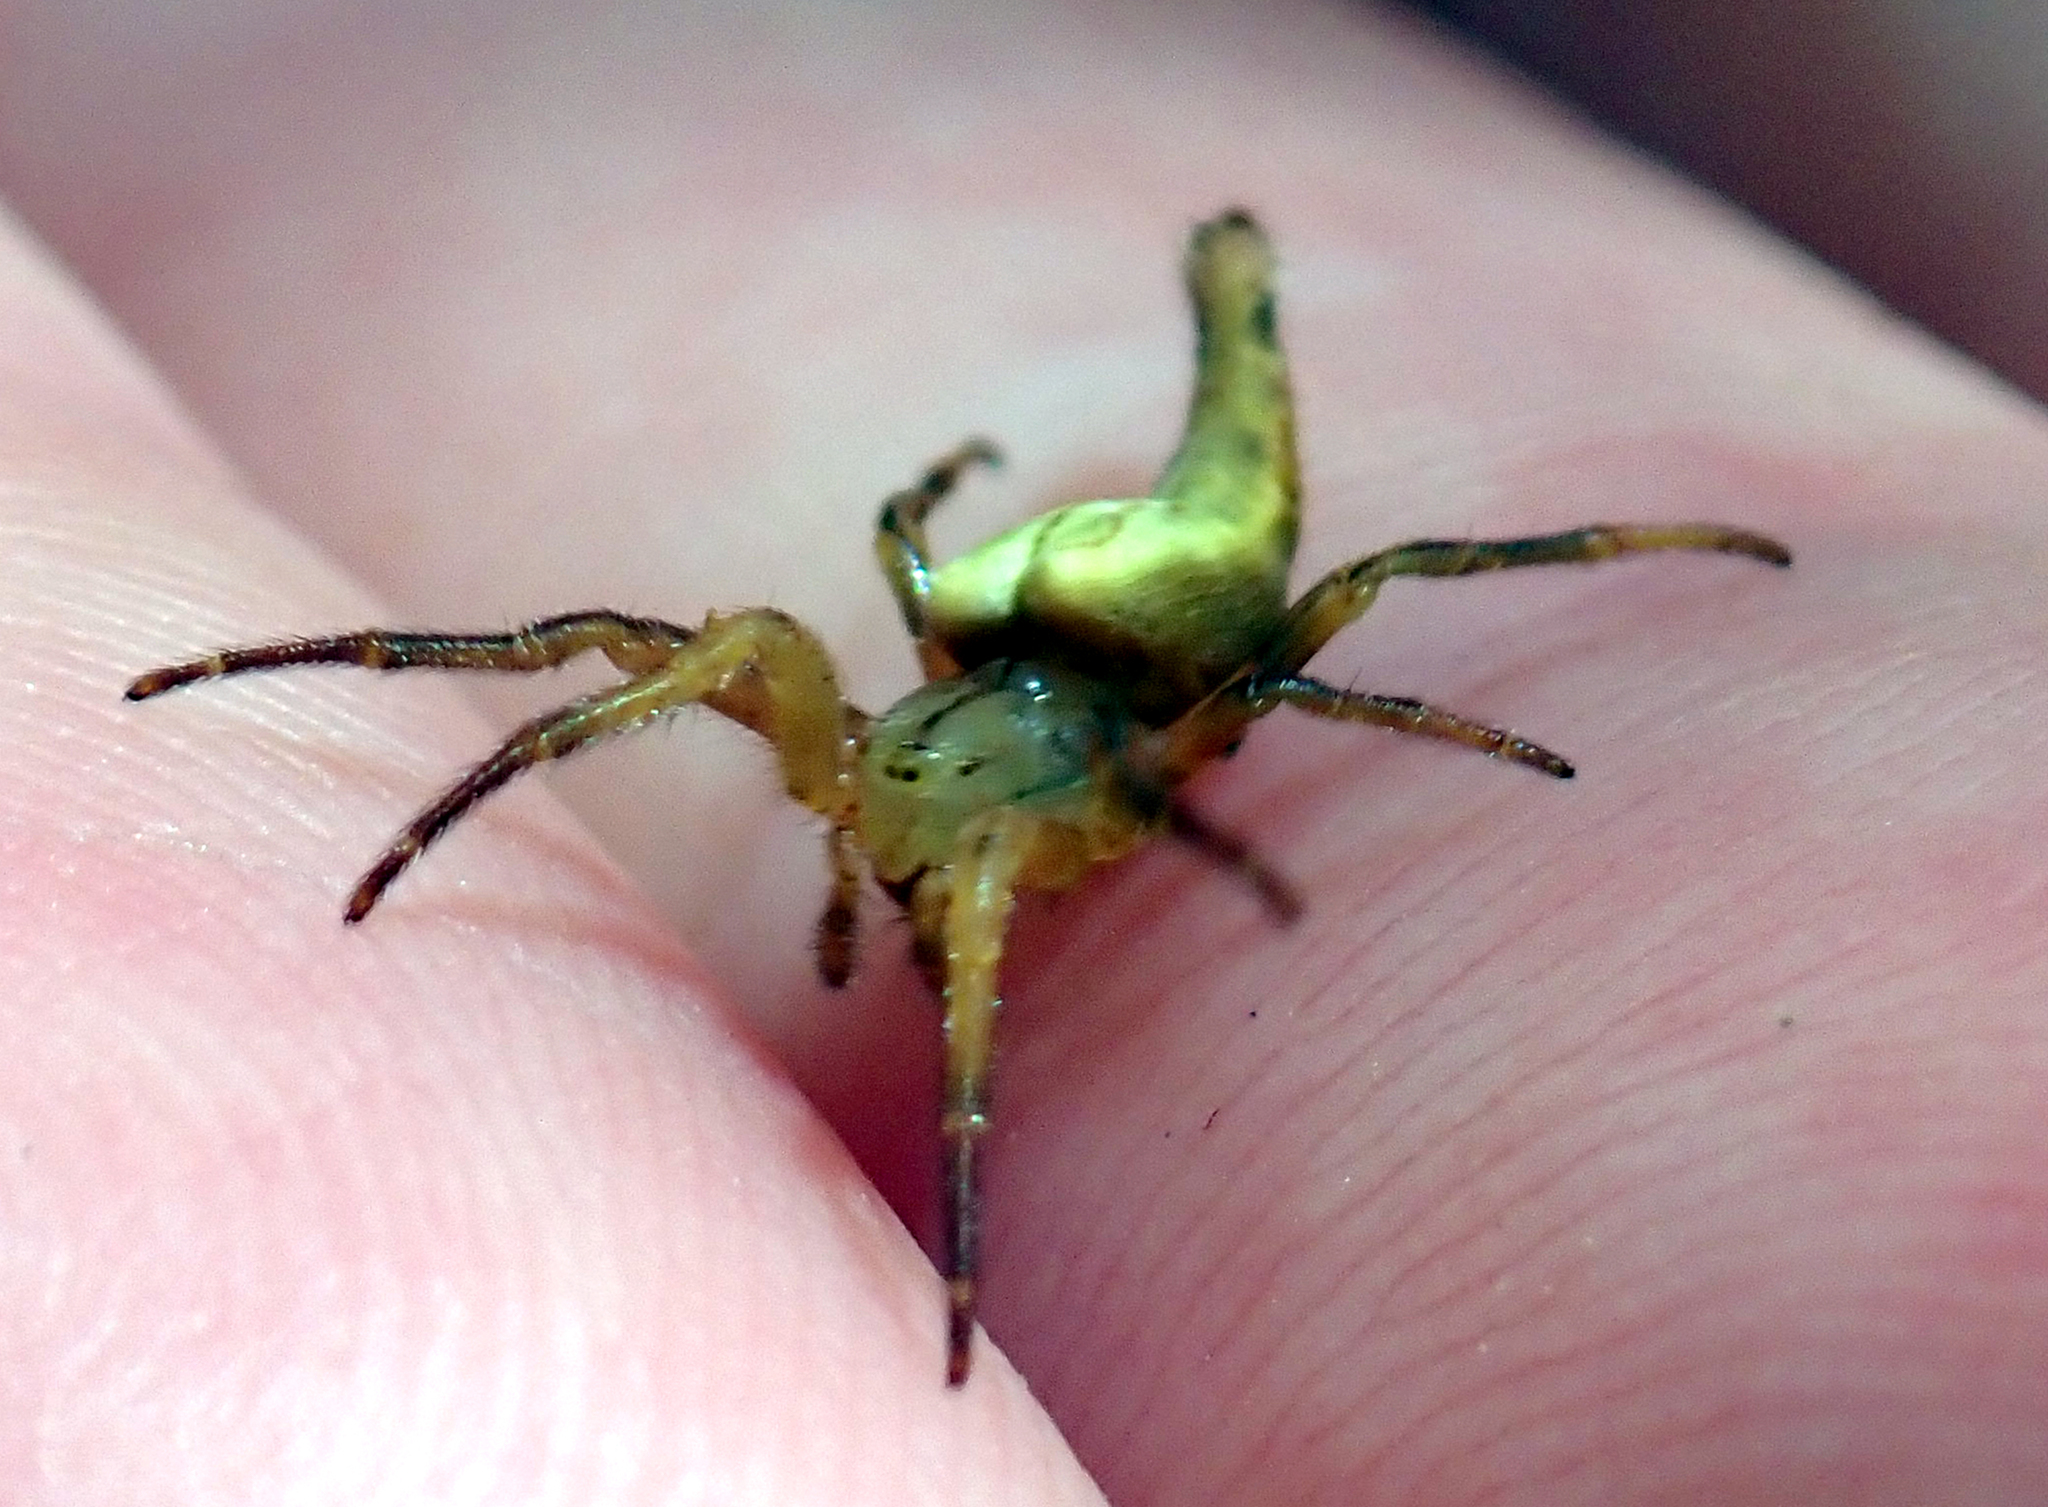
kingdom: Animalia
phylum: Arthropoda
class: Arachnida
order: Araneae
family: Araneidae
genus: Arachnura
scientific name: Arachnura feredayi
